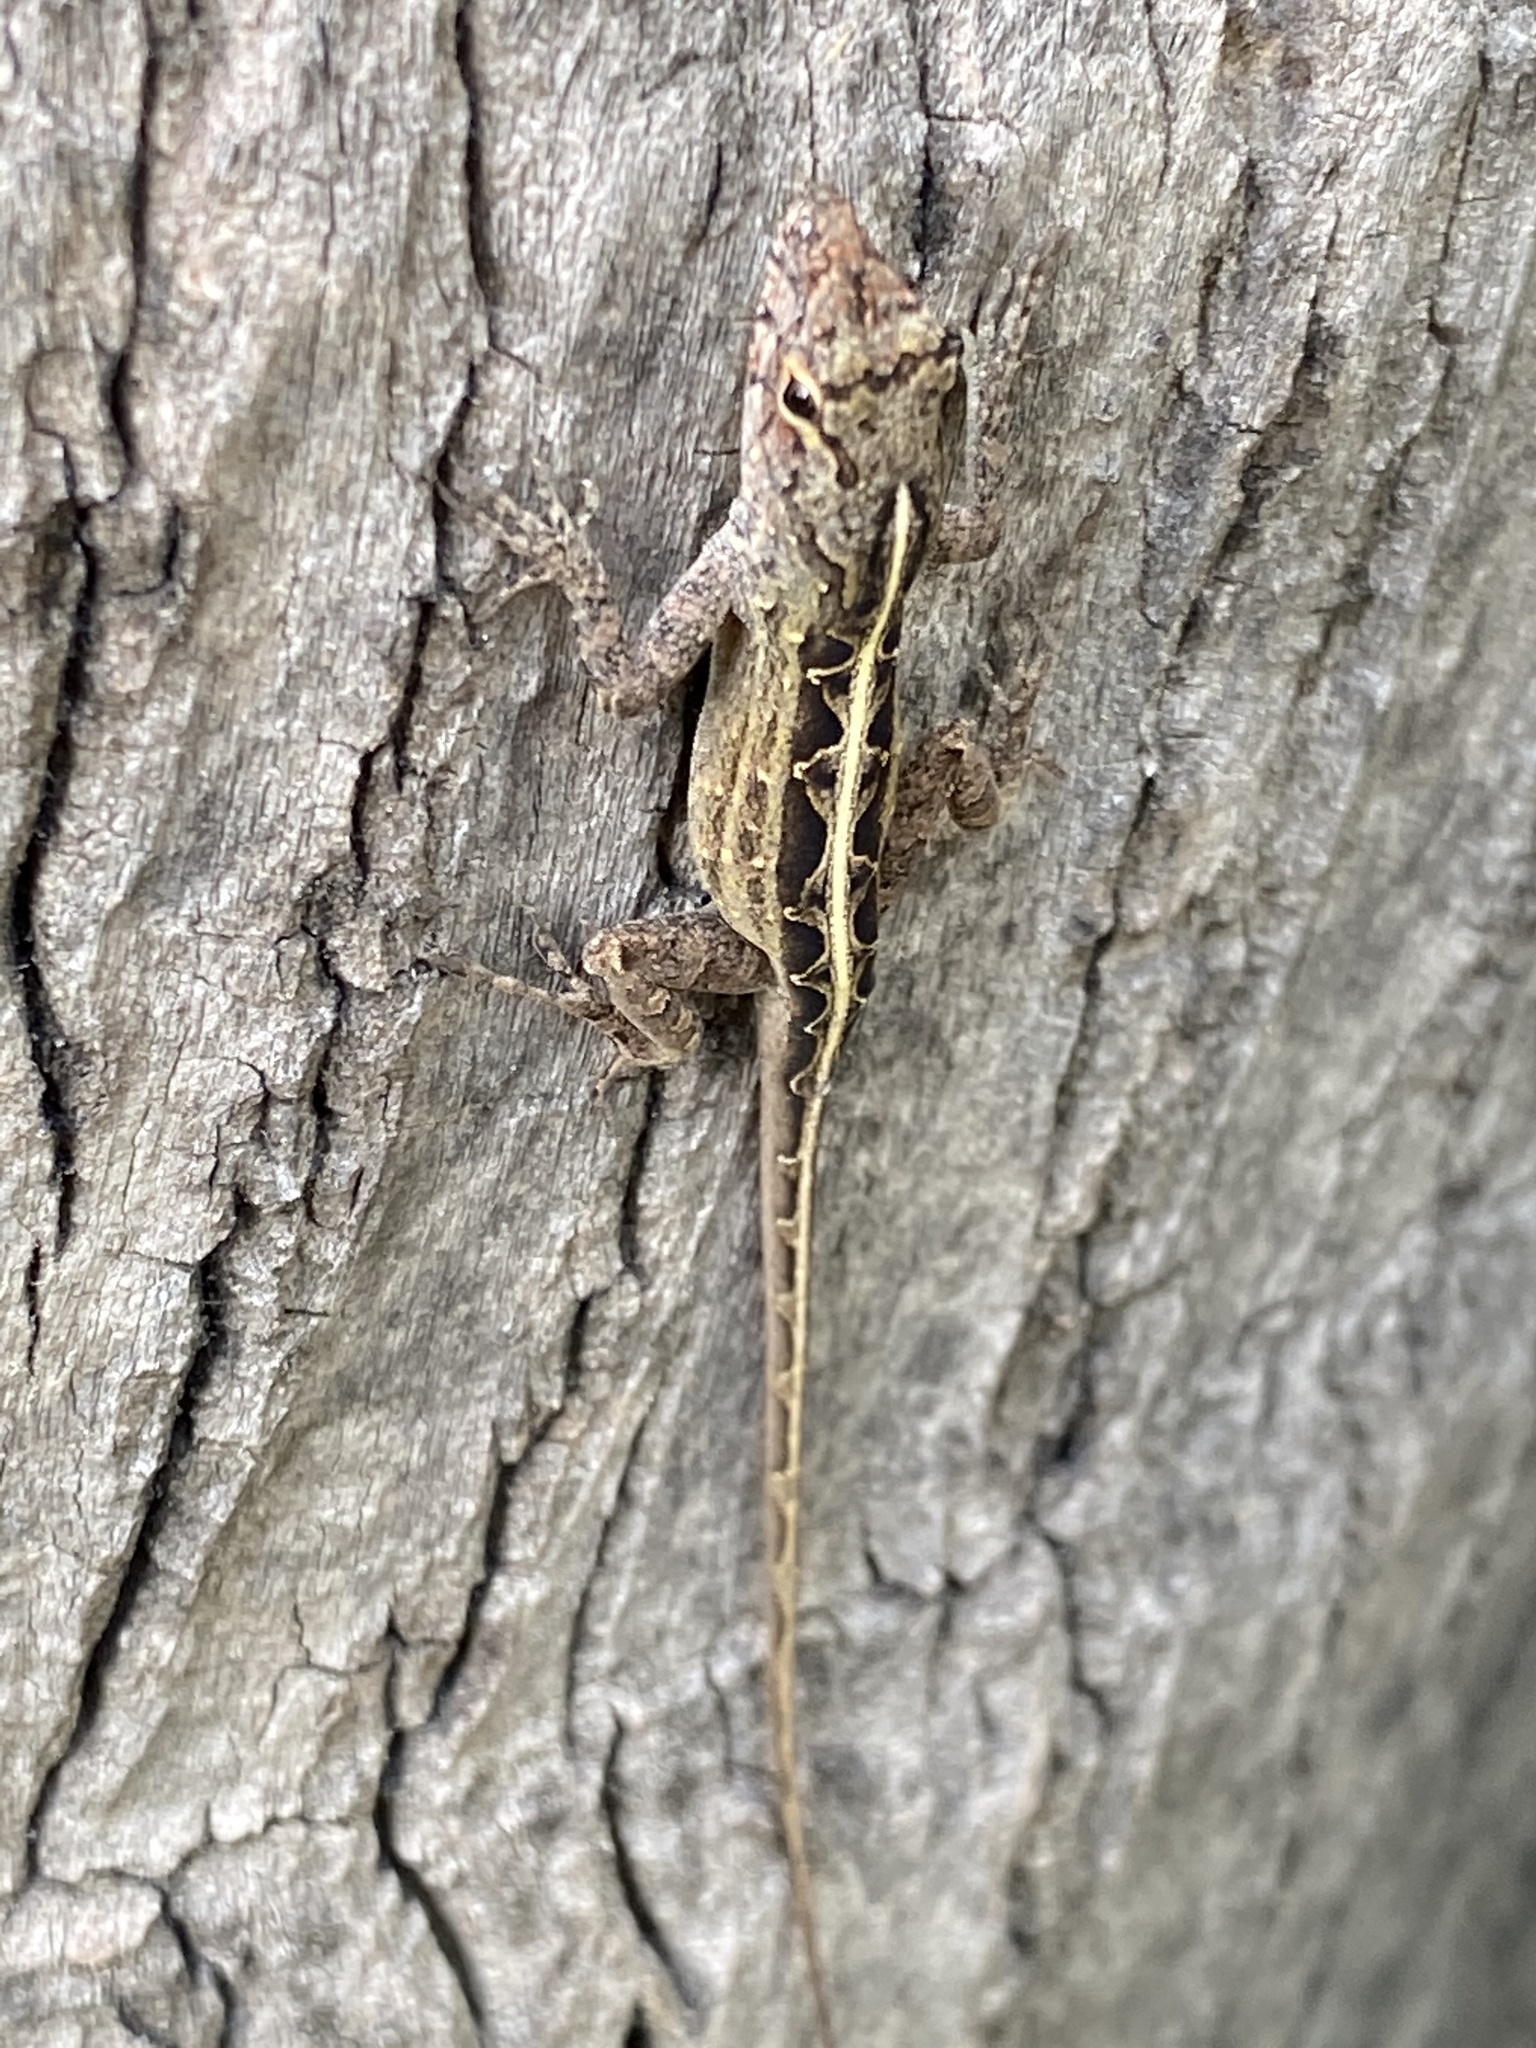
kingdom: Animalia
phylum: Chordata
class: Squamata
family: Dactyloidae
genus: Anolis
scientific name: Anolis sagrei
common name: Brown anole
